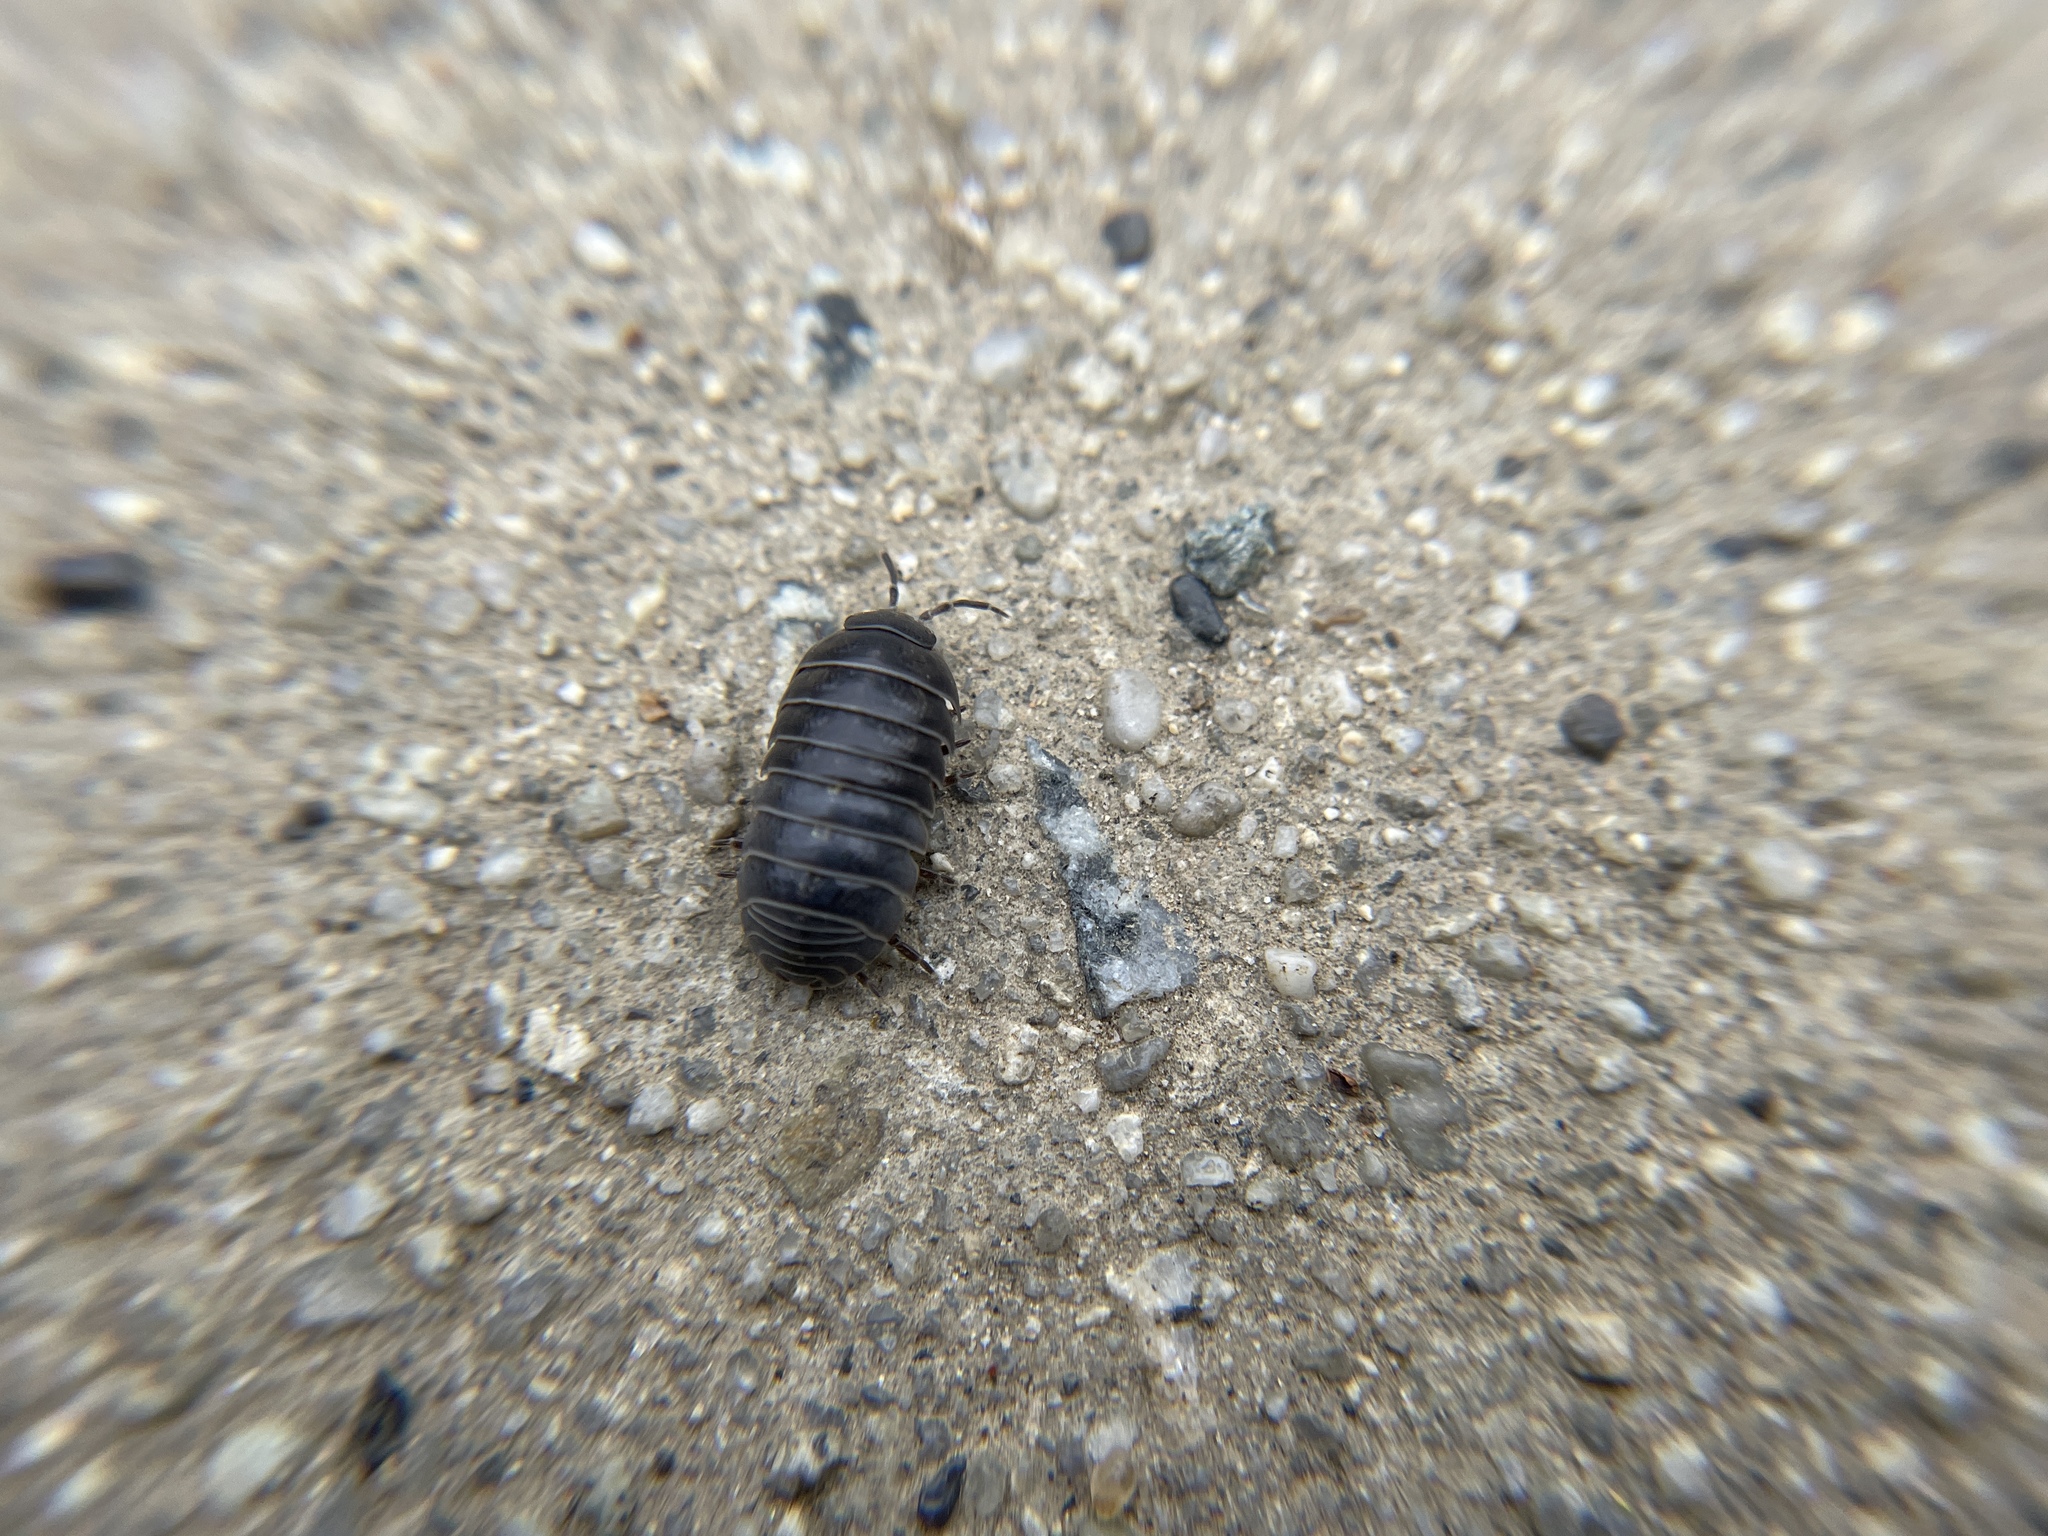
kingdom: Animalia
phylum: Arthropoda
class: Malacostraca
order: Isopoda
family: Armadillidiidae
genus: Armadillidium
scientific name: Armadillidium vulgare
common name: Common pill woodlouse
